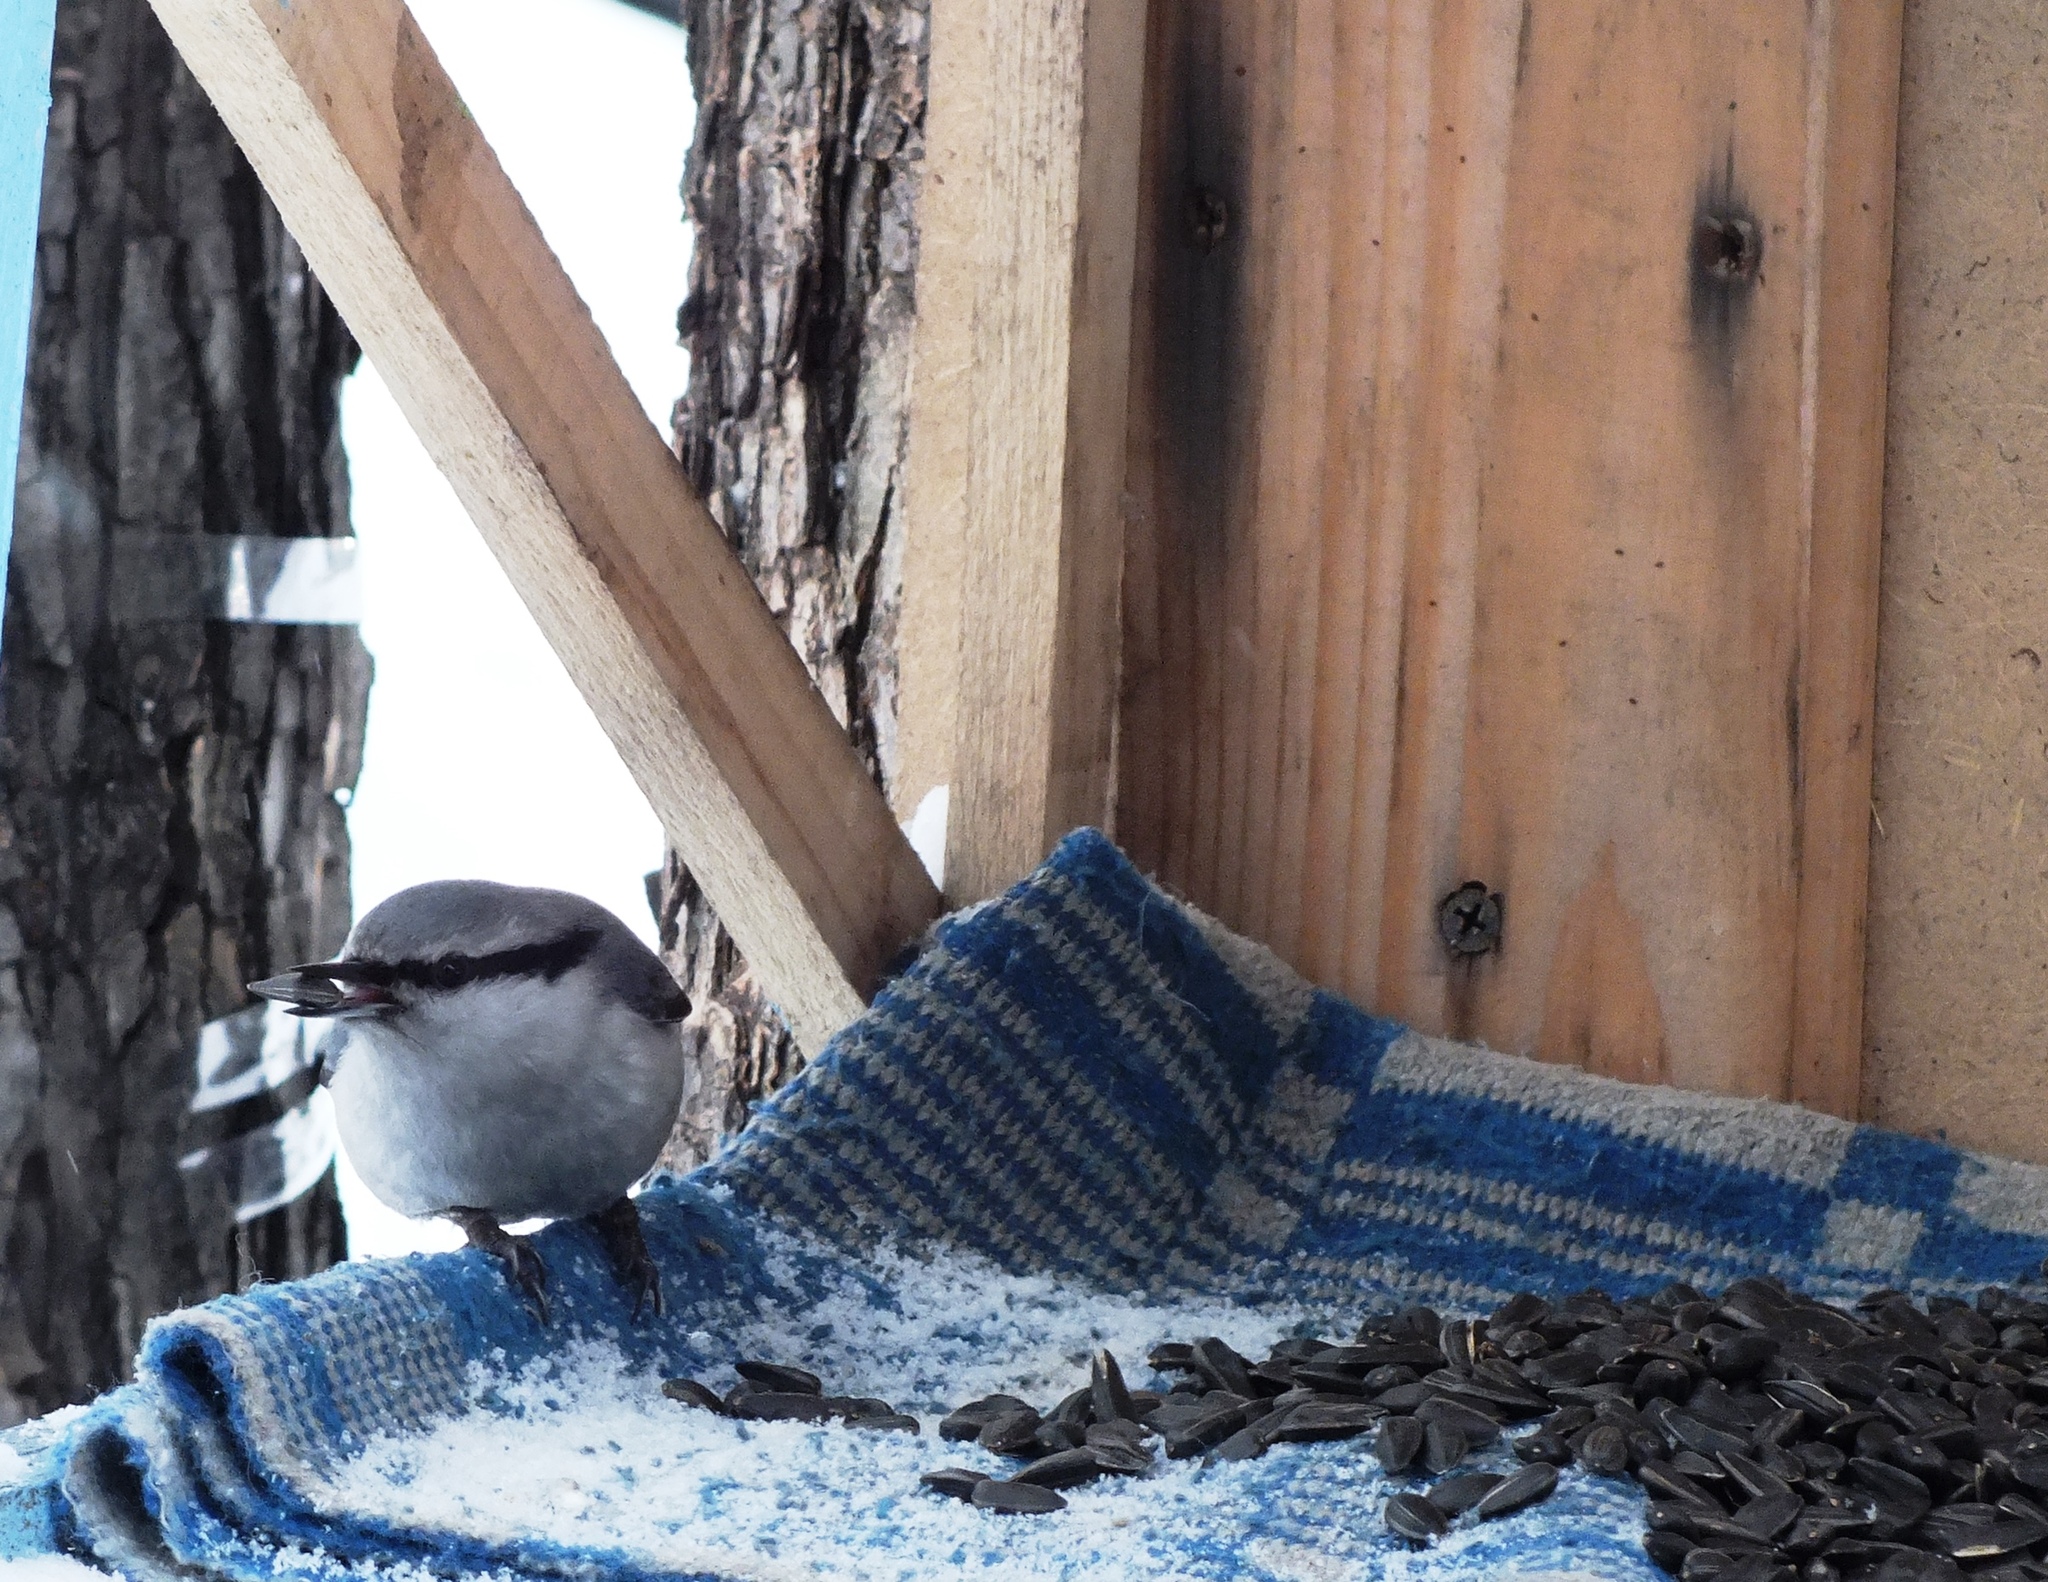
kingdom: Animalia
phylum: Chordata
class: Aves
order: Passeriformes
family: Sittidae
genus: Sitta
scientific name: Sitta europaea
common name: Eurasian nuthatch
